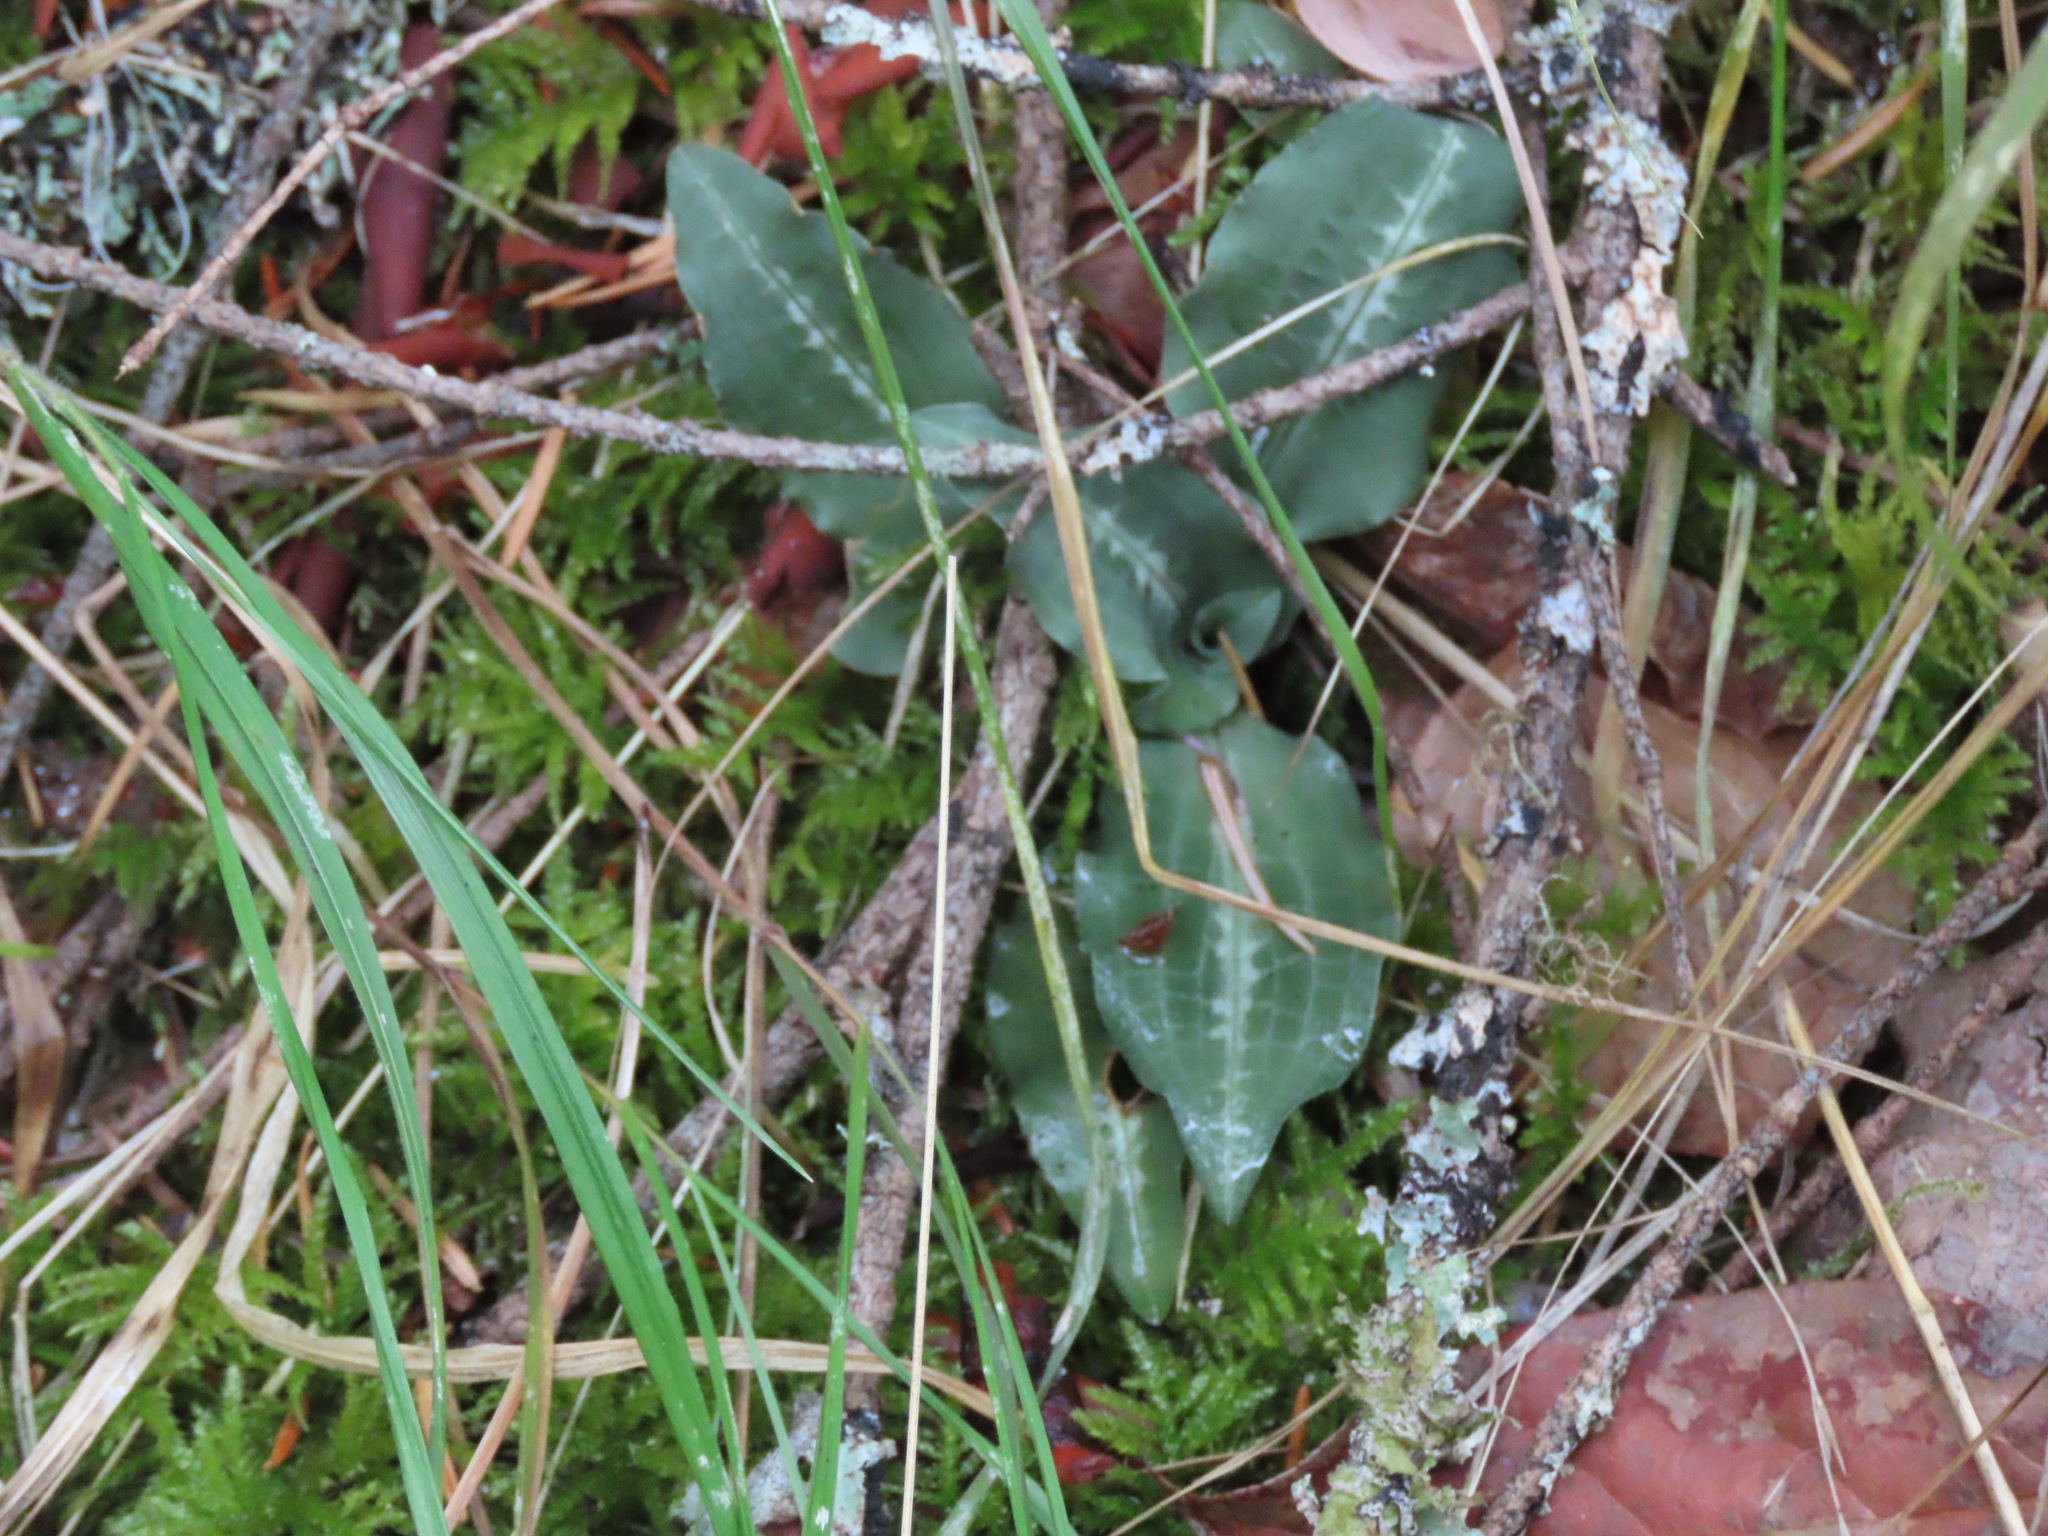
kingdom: Plantae
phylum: Tracheophyta
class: Liliopsida
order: Asparagales
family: Orchidaceae
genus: Goodyera
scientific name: Goodyera oblongifolia
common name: Giant rattlesnake-plantain
